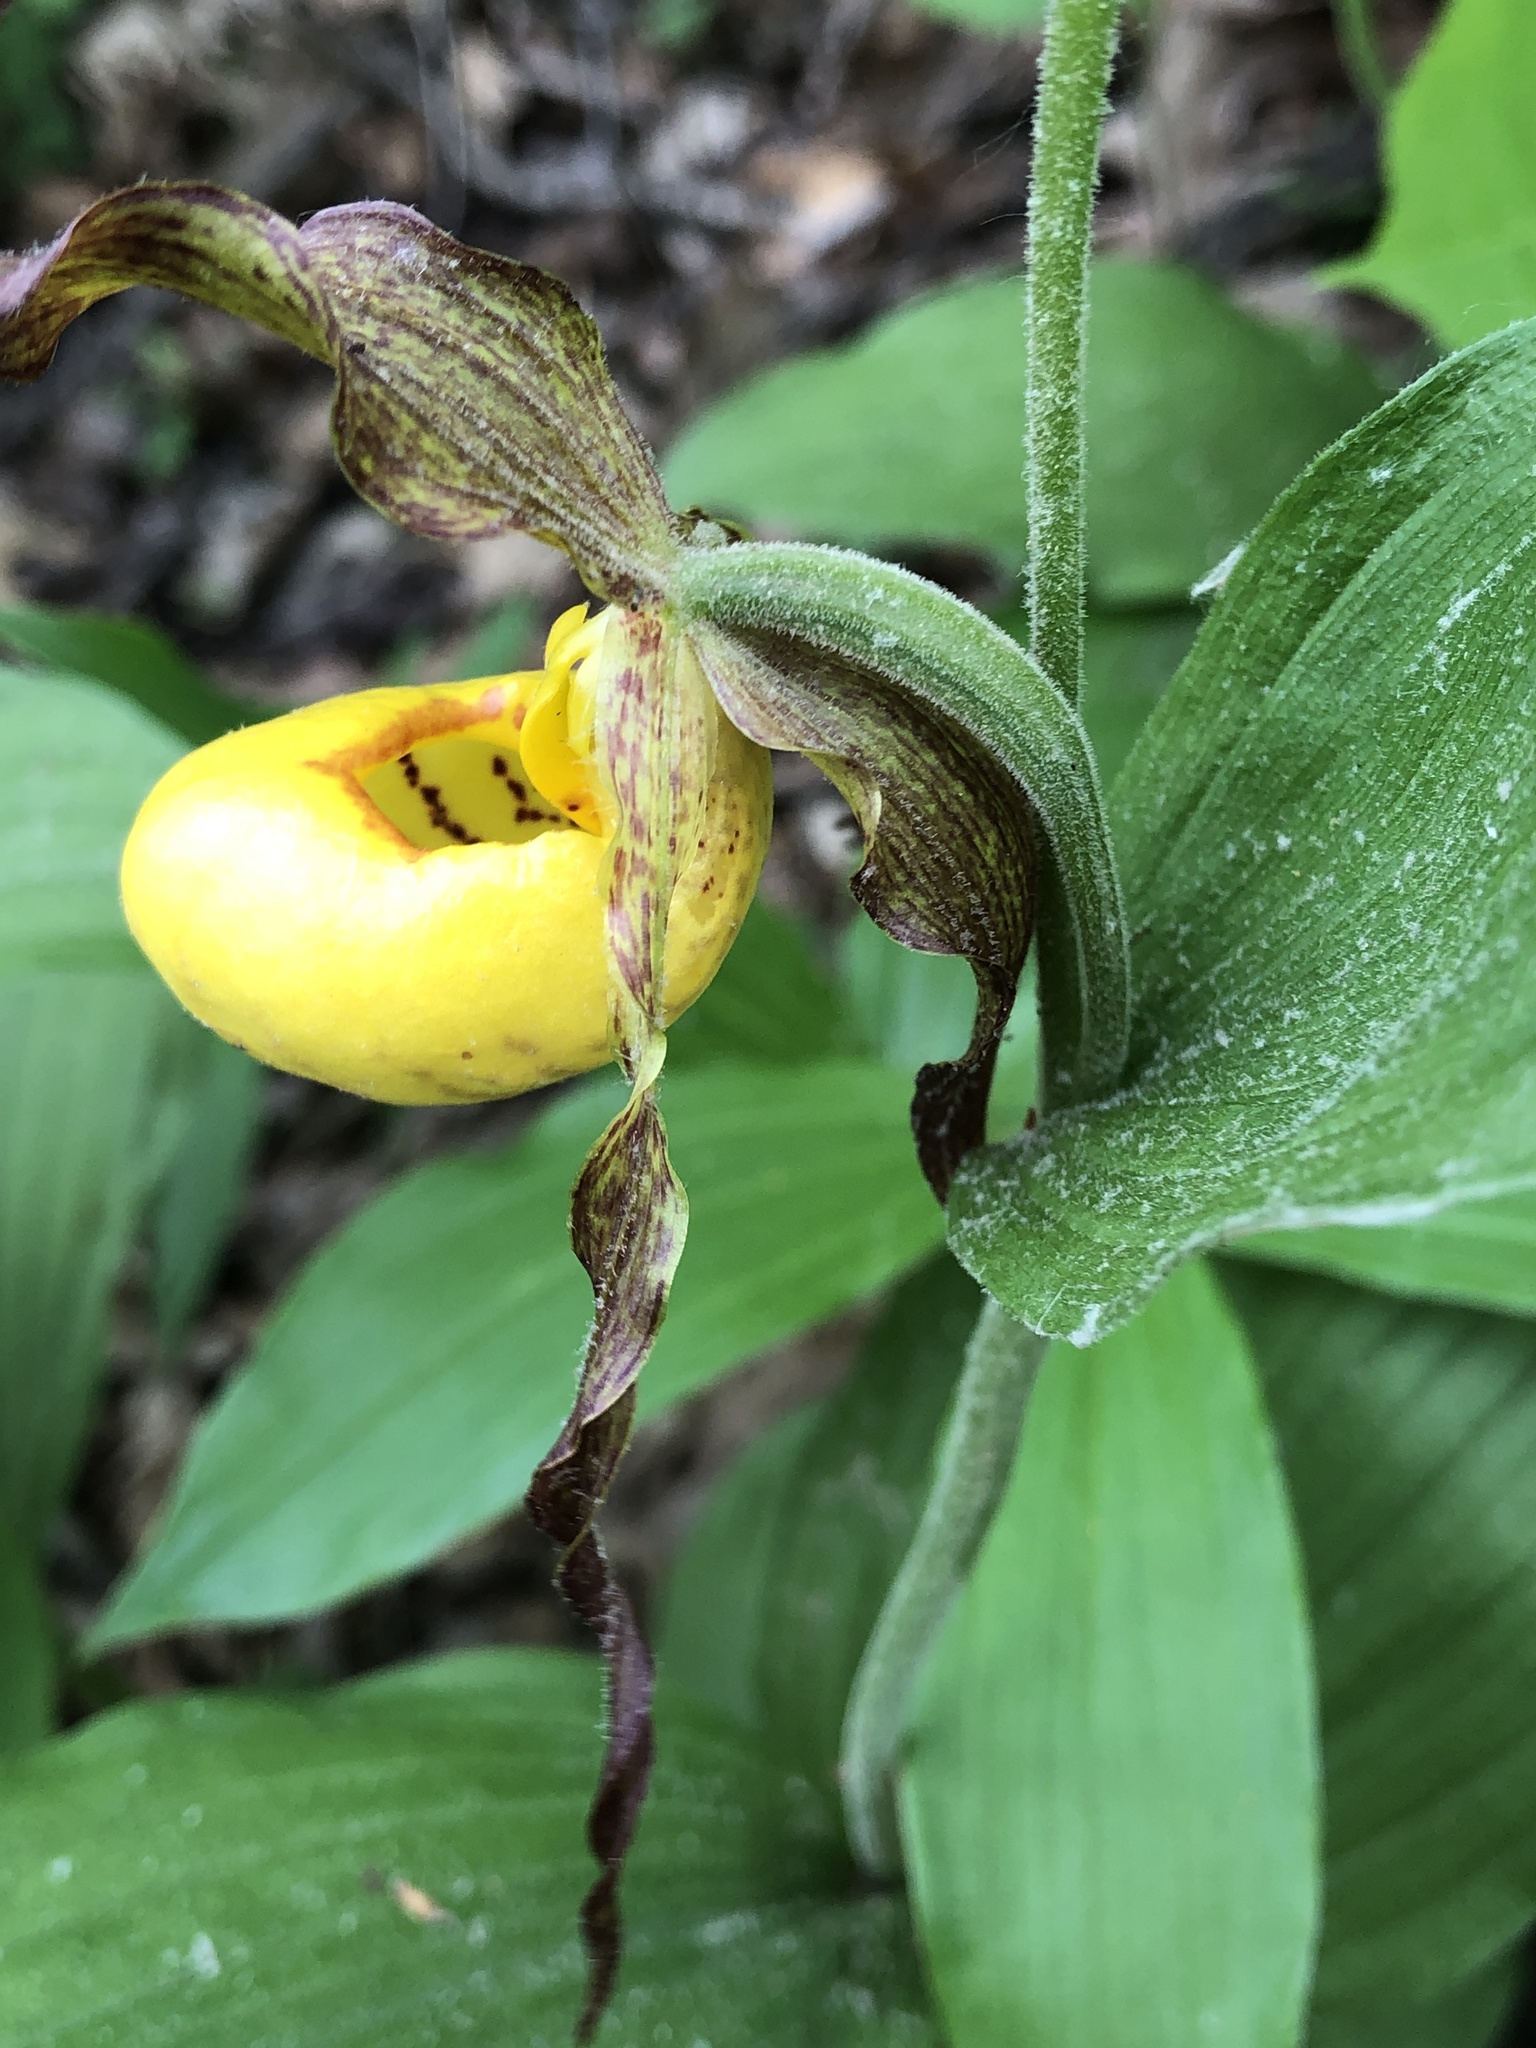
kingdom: Plantae
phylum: Tracheophyta
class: Liliopsida
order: Asparagales
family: Orchidaceae
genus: Cypripedium
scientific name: Cypripedium parviflorum
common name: American yellow lady's-slipper
